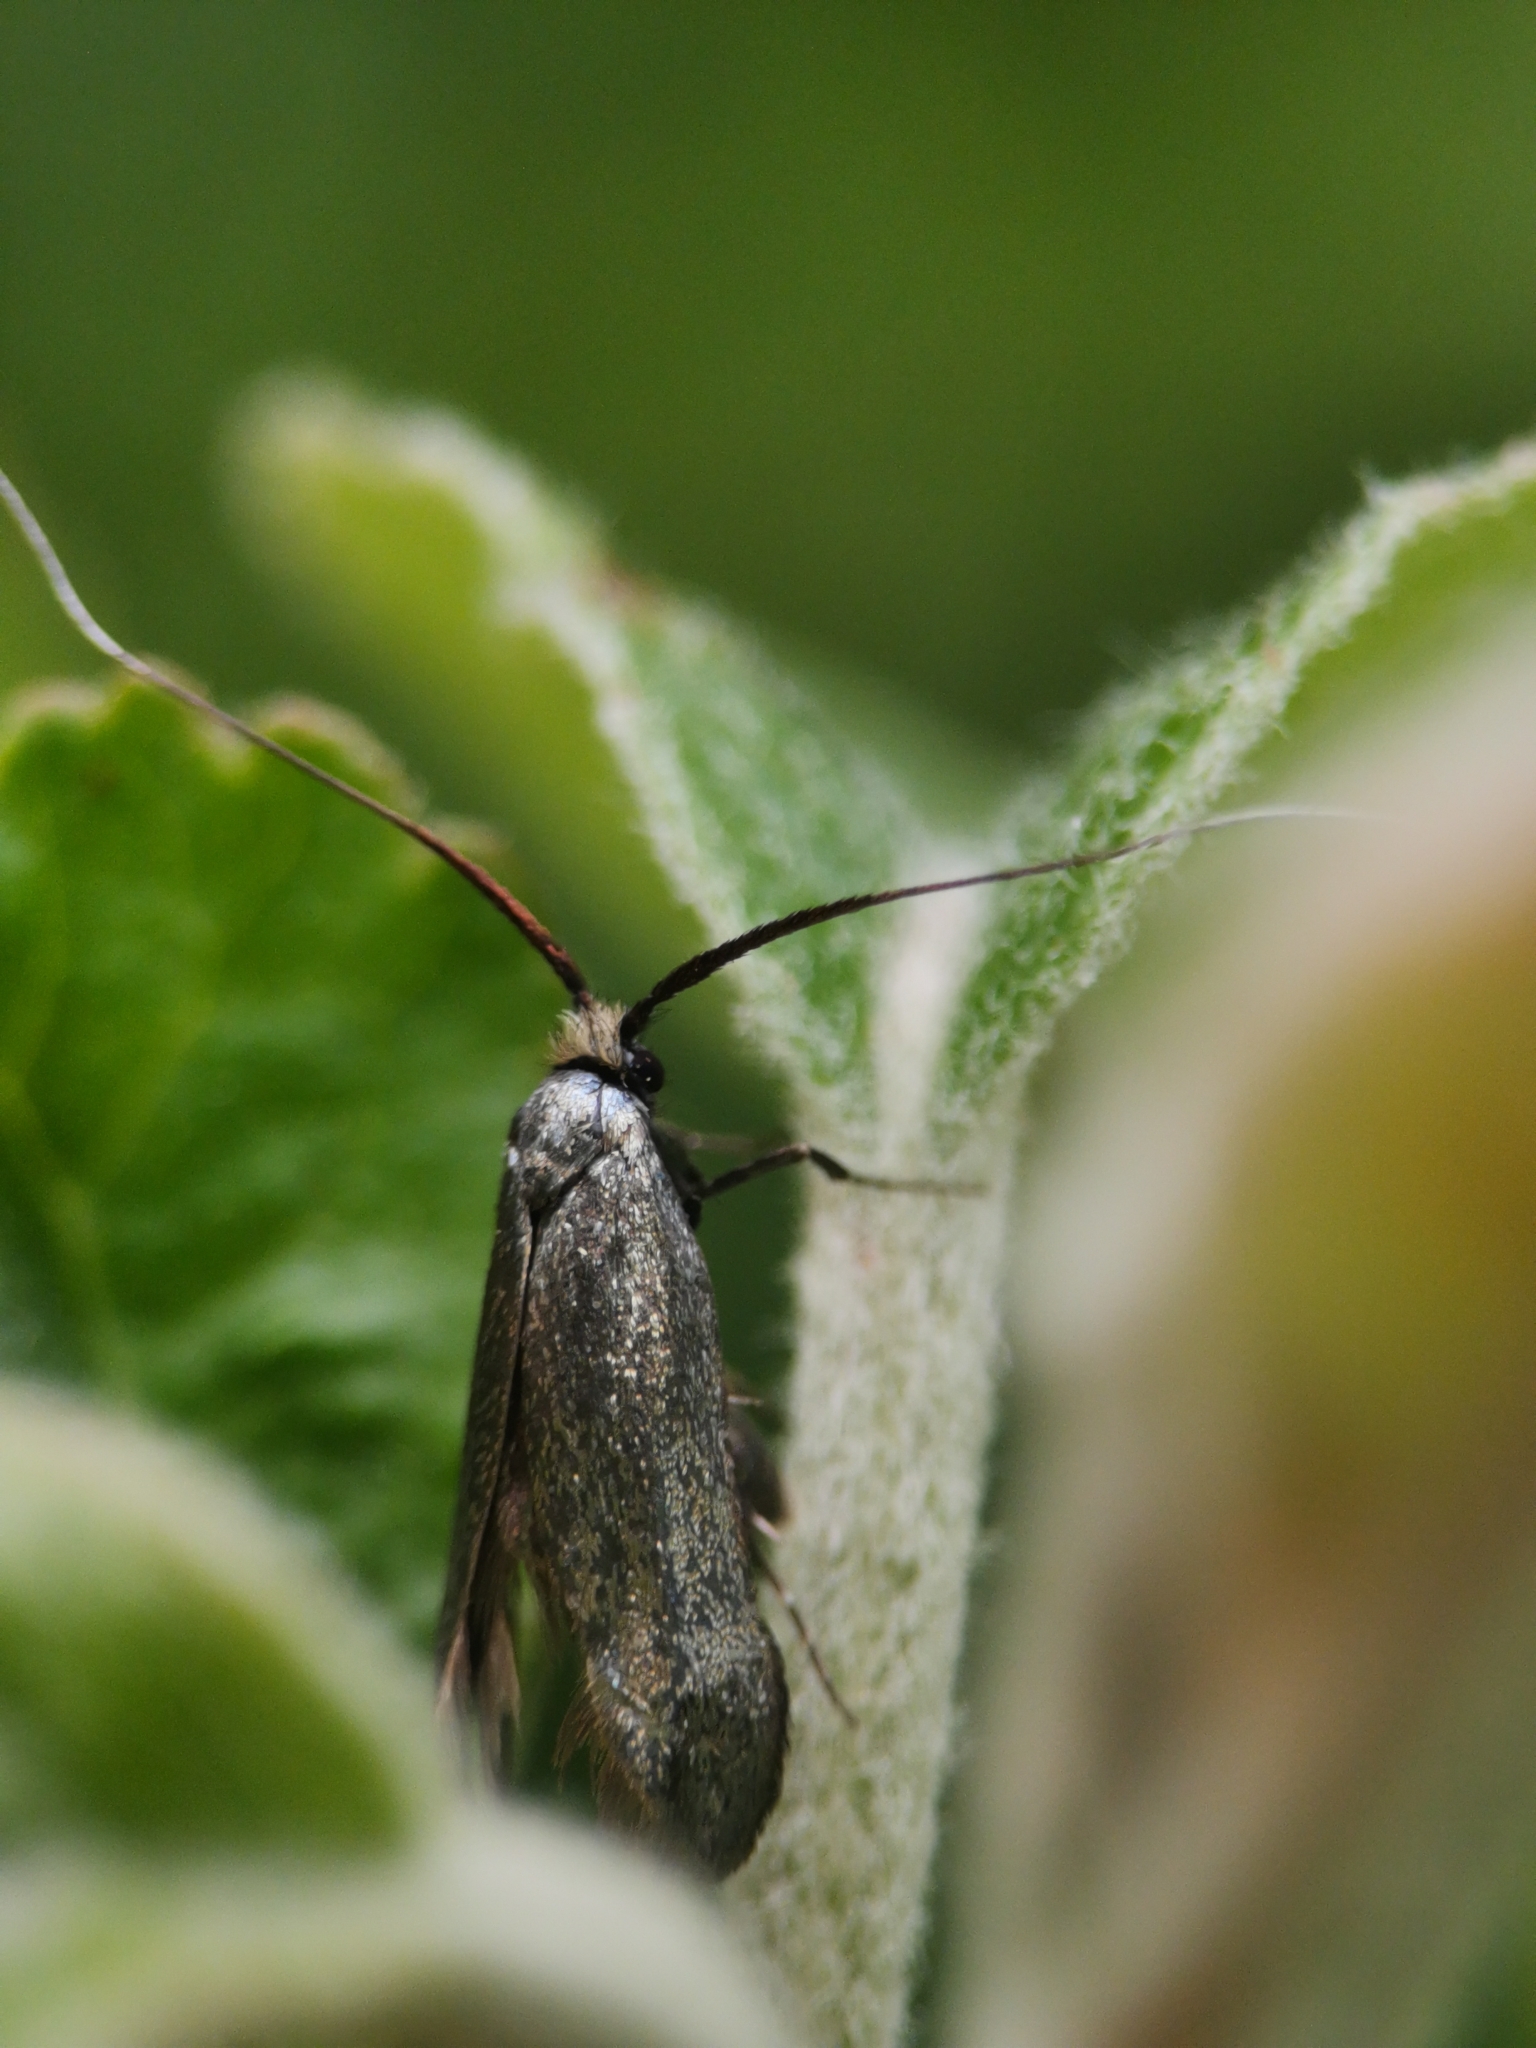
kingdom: Animalia
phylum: Arthropoda
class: Insecta
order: Lepidoptera
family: Adelidae
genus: Adela
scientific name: Adela viridella
